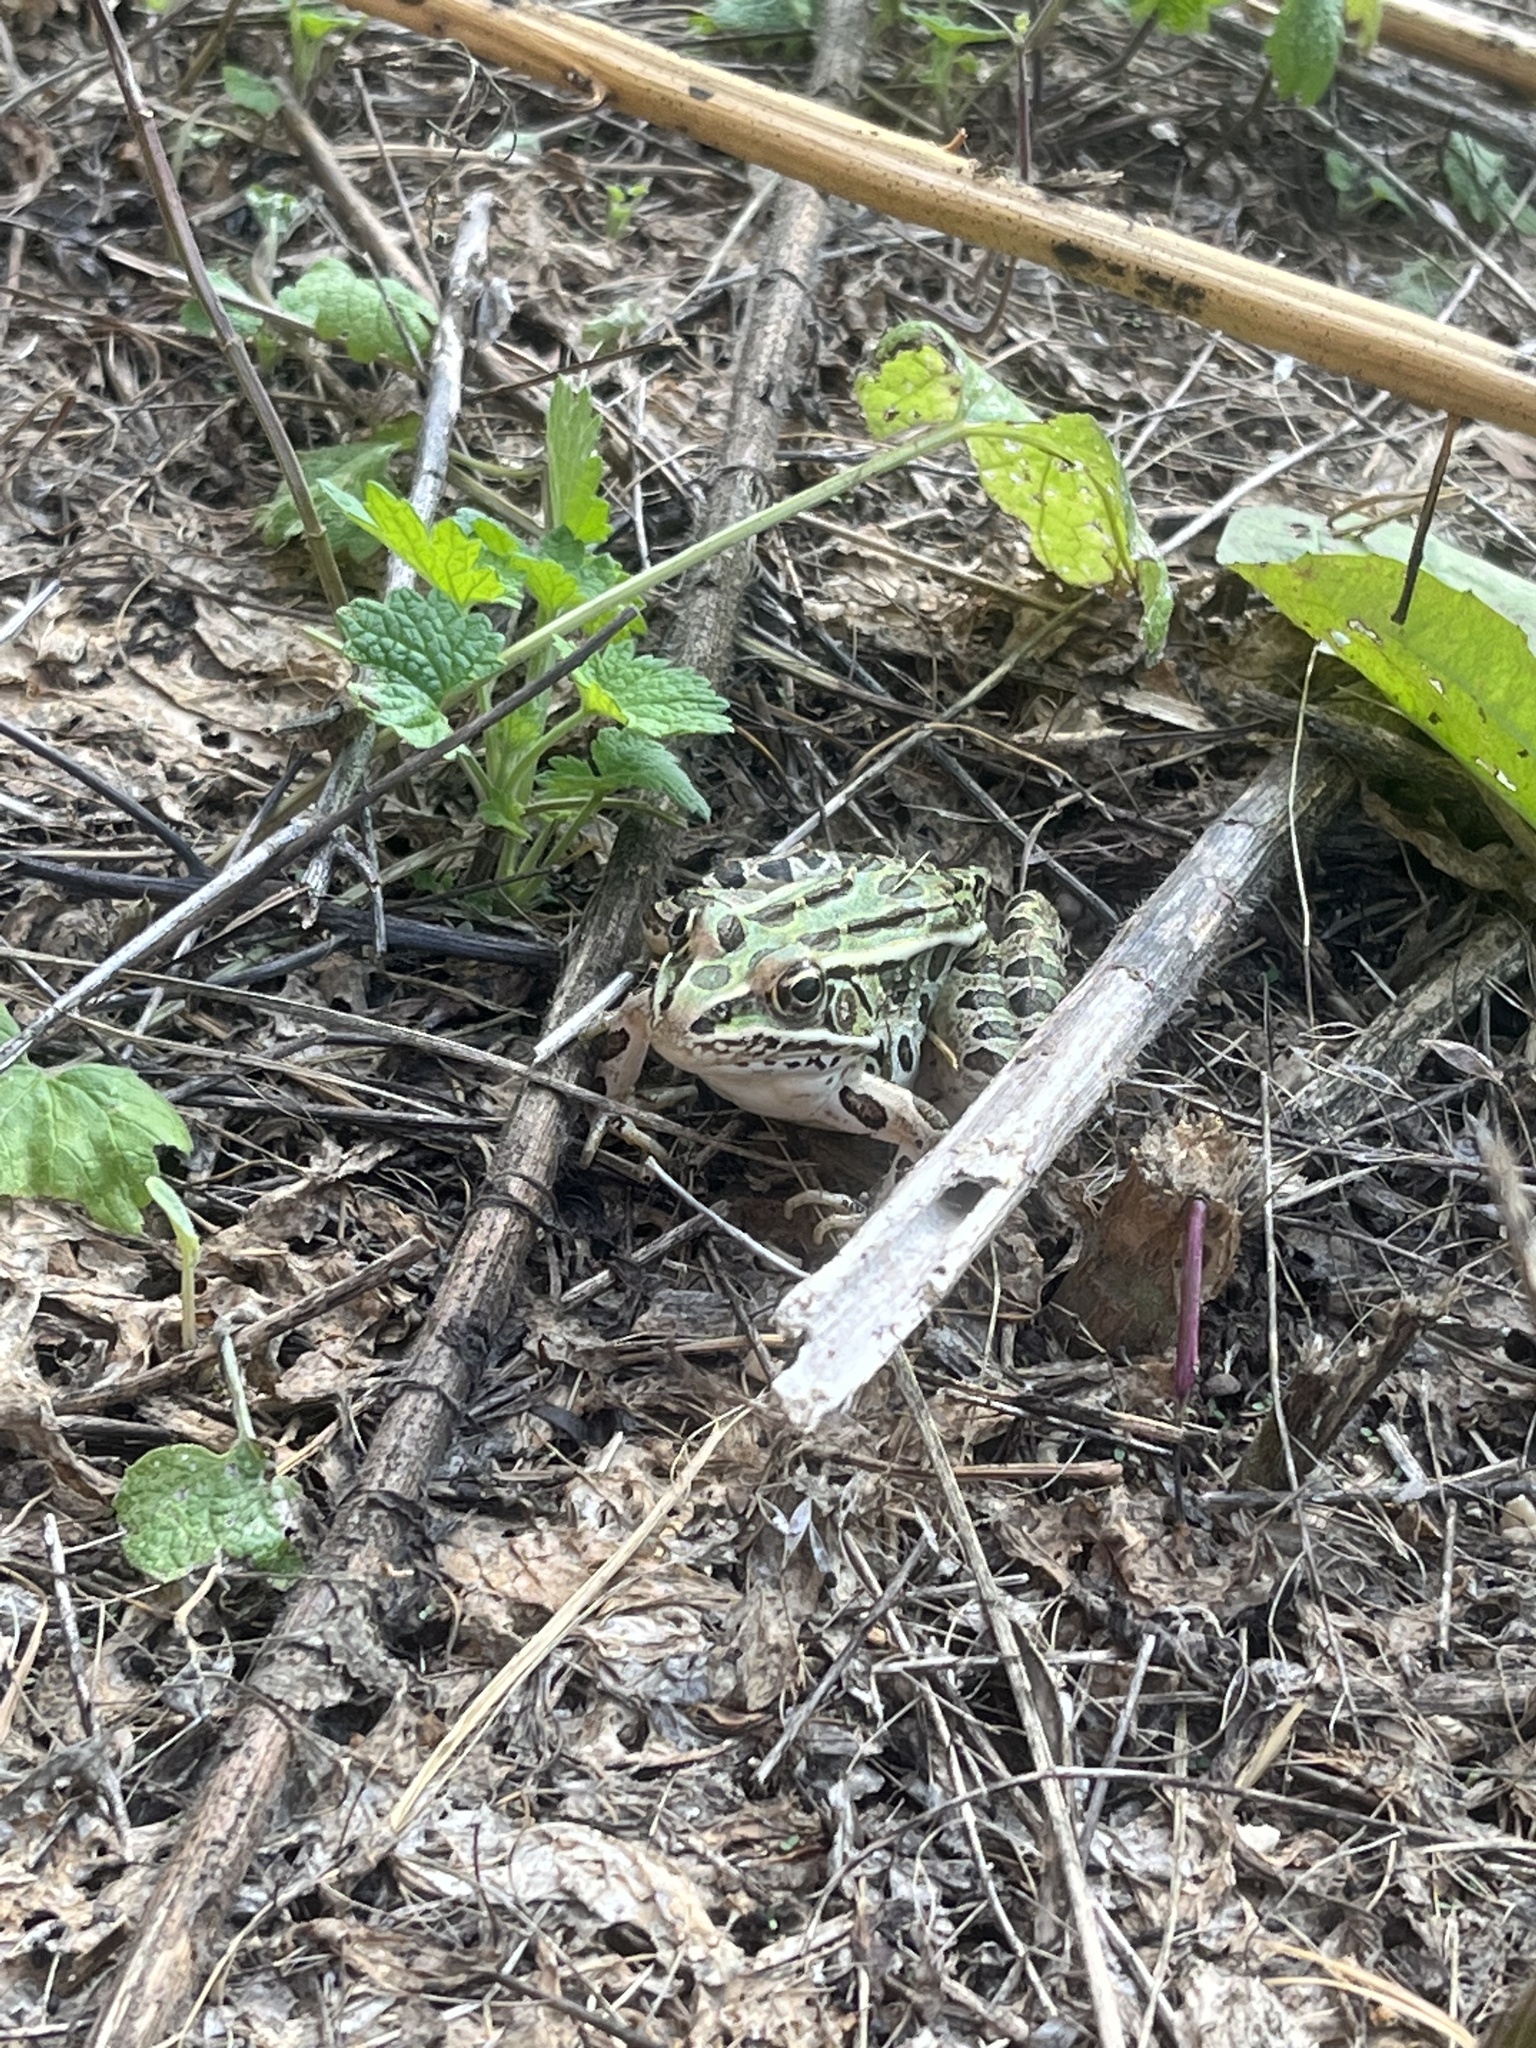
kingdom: Animalia
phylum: Chordata
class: Amphibia
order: Anura
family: Ranidae
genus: Lithobates
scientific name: Lithobates pipiens
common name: Northern leopard frog
